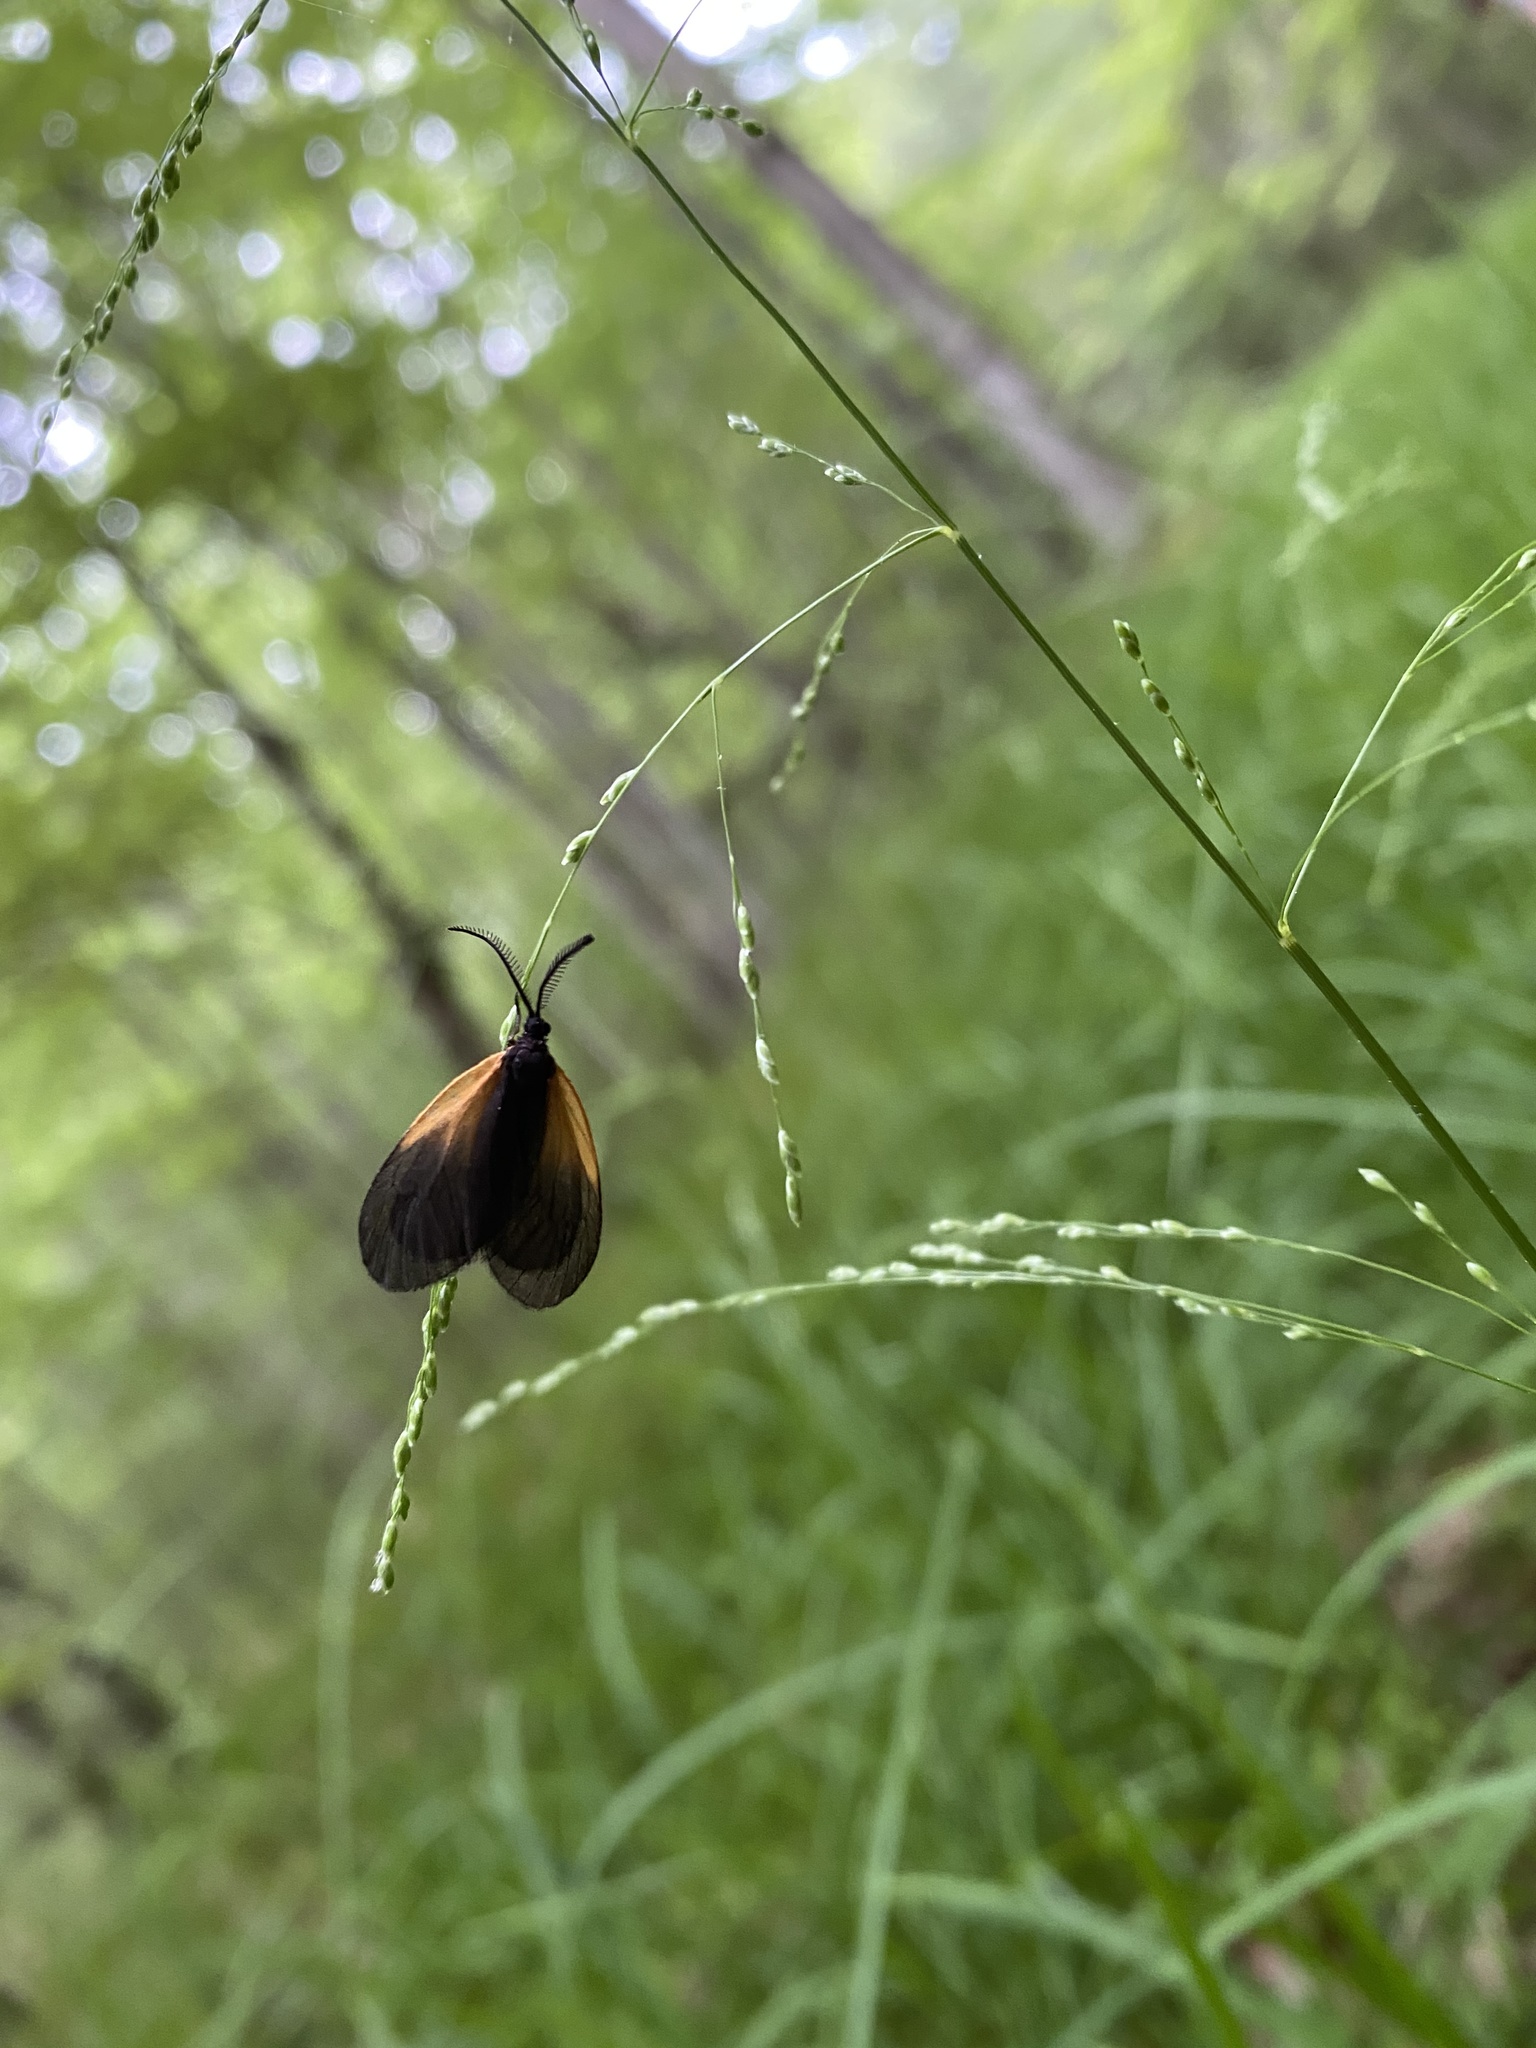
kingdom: Animalia
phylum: Arthropoda
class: Insecta
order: Lepidoptera
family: Zygaenidae
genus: Malthaca
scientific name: Malthaca dimidiata
